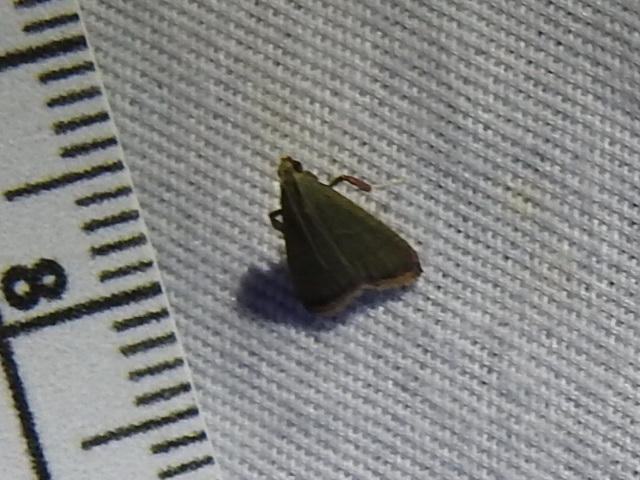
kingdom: Animalia
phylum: Arthropoda
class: Insecta
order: Lepidoptera
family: Pyralidae
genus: Arta
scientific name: Arta olivalis
